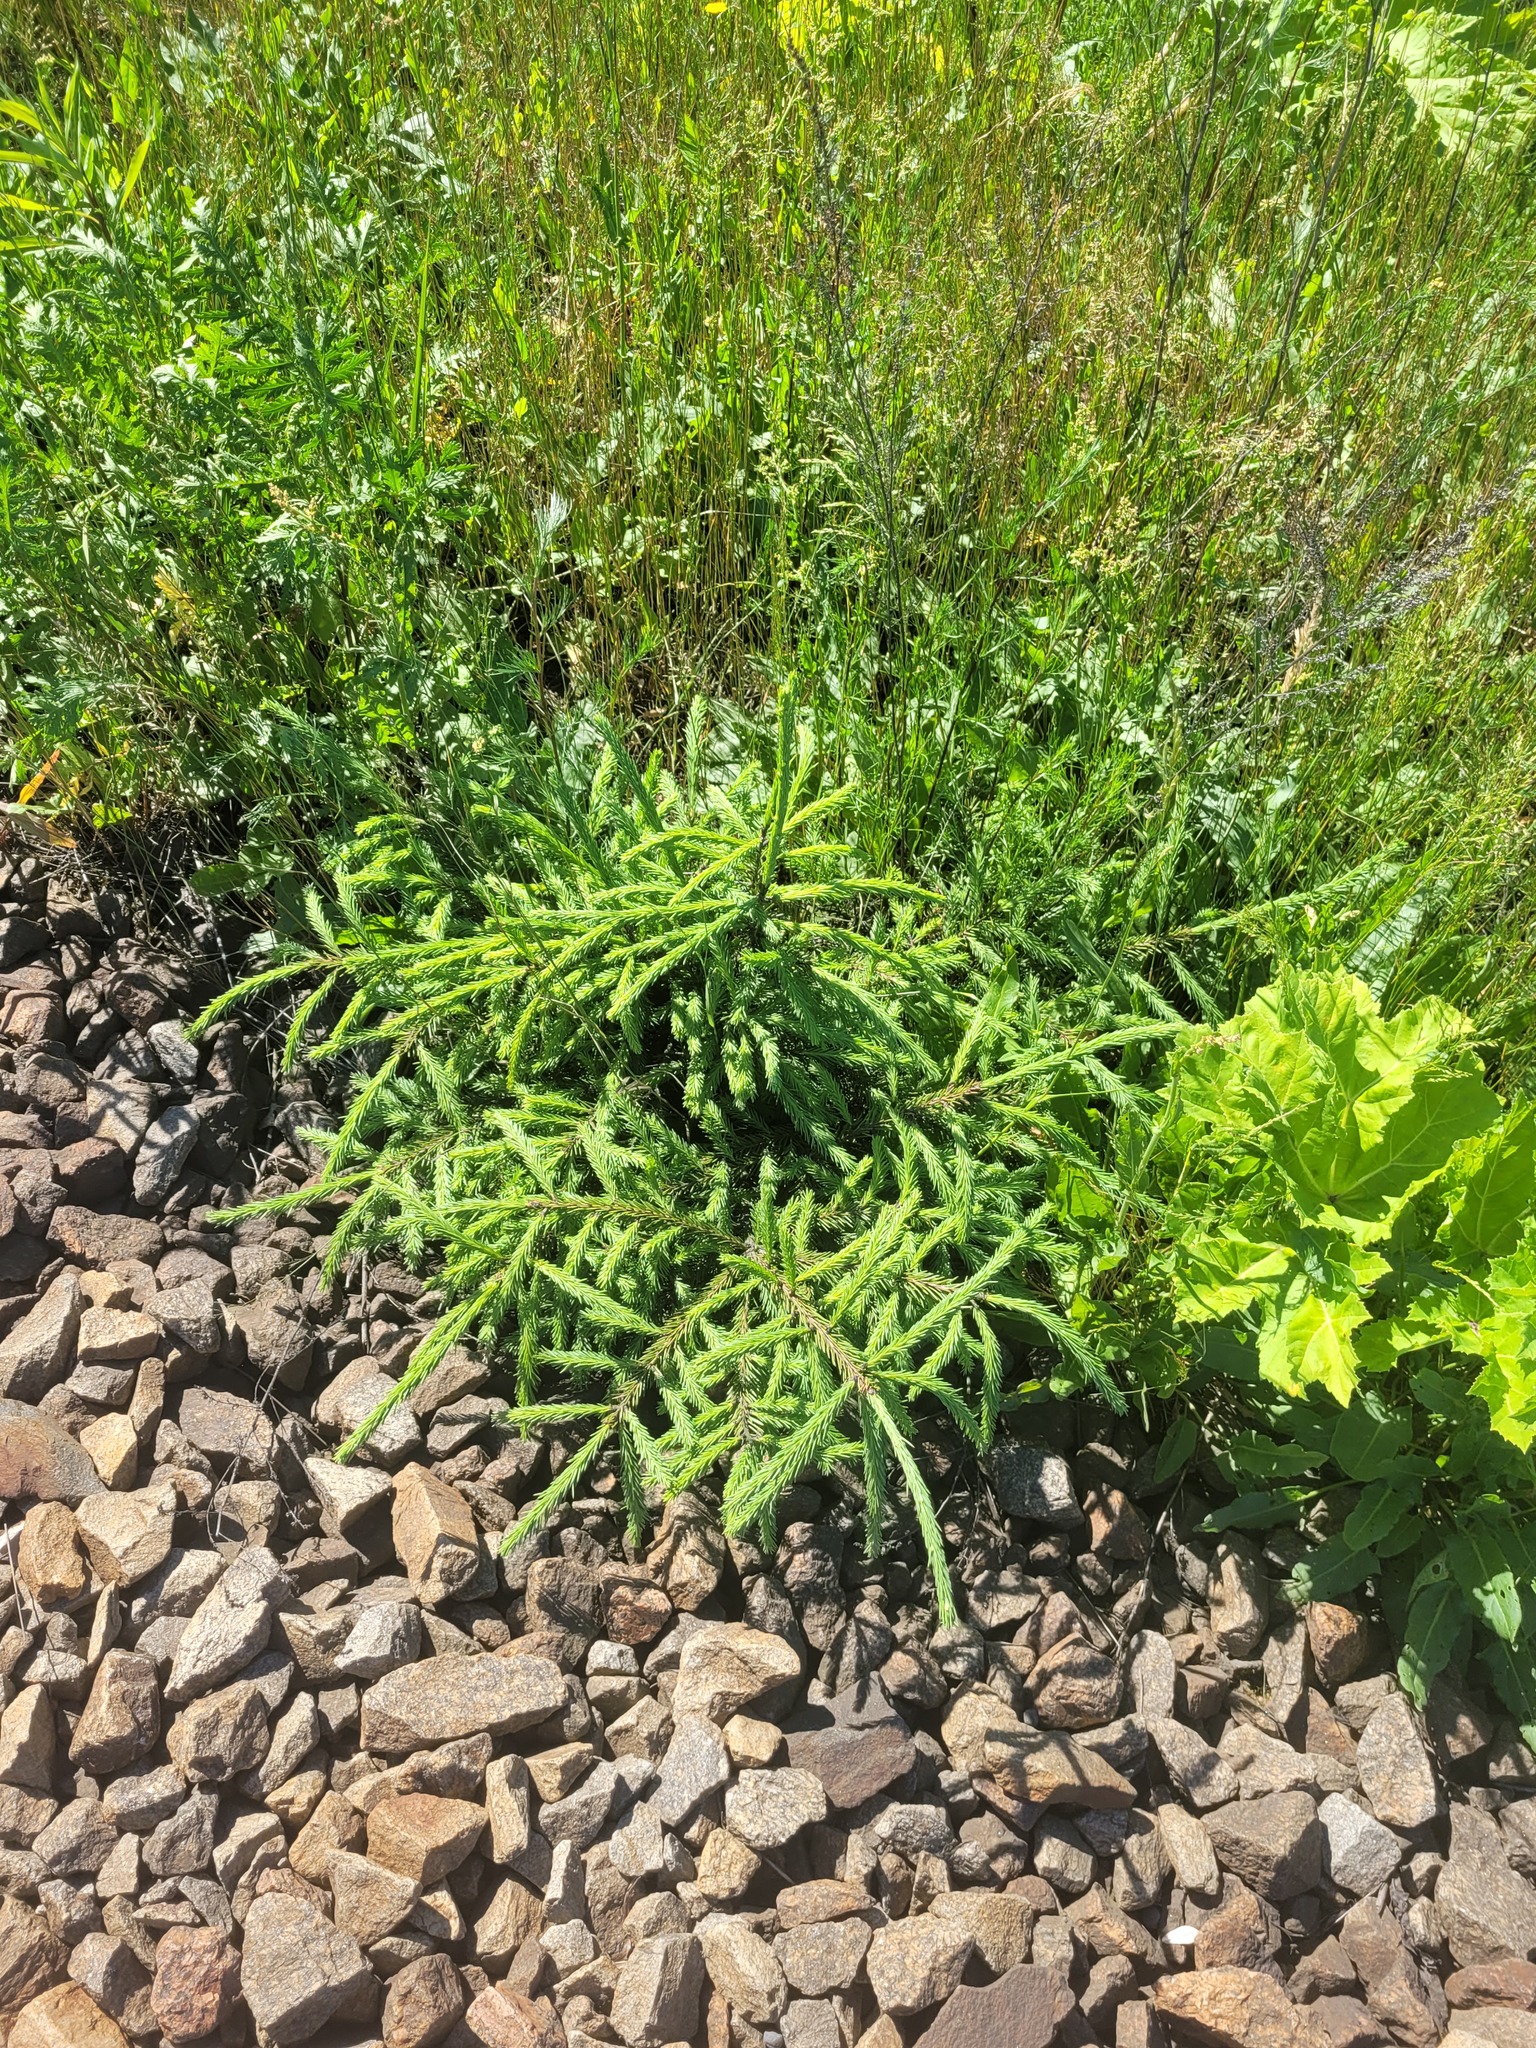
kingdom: Plantae
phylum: Tracheophyta
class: Pinopsida
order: Pinales
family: Pinaceae
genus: Picea
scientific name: Picea abies
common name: Norway spruce
